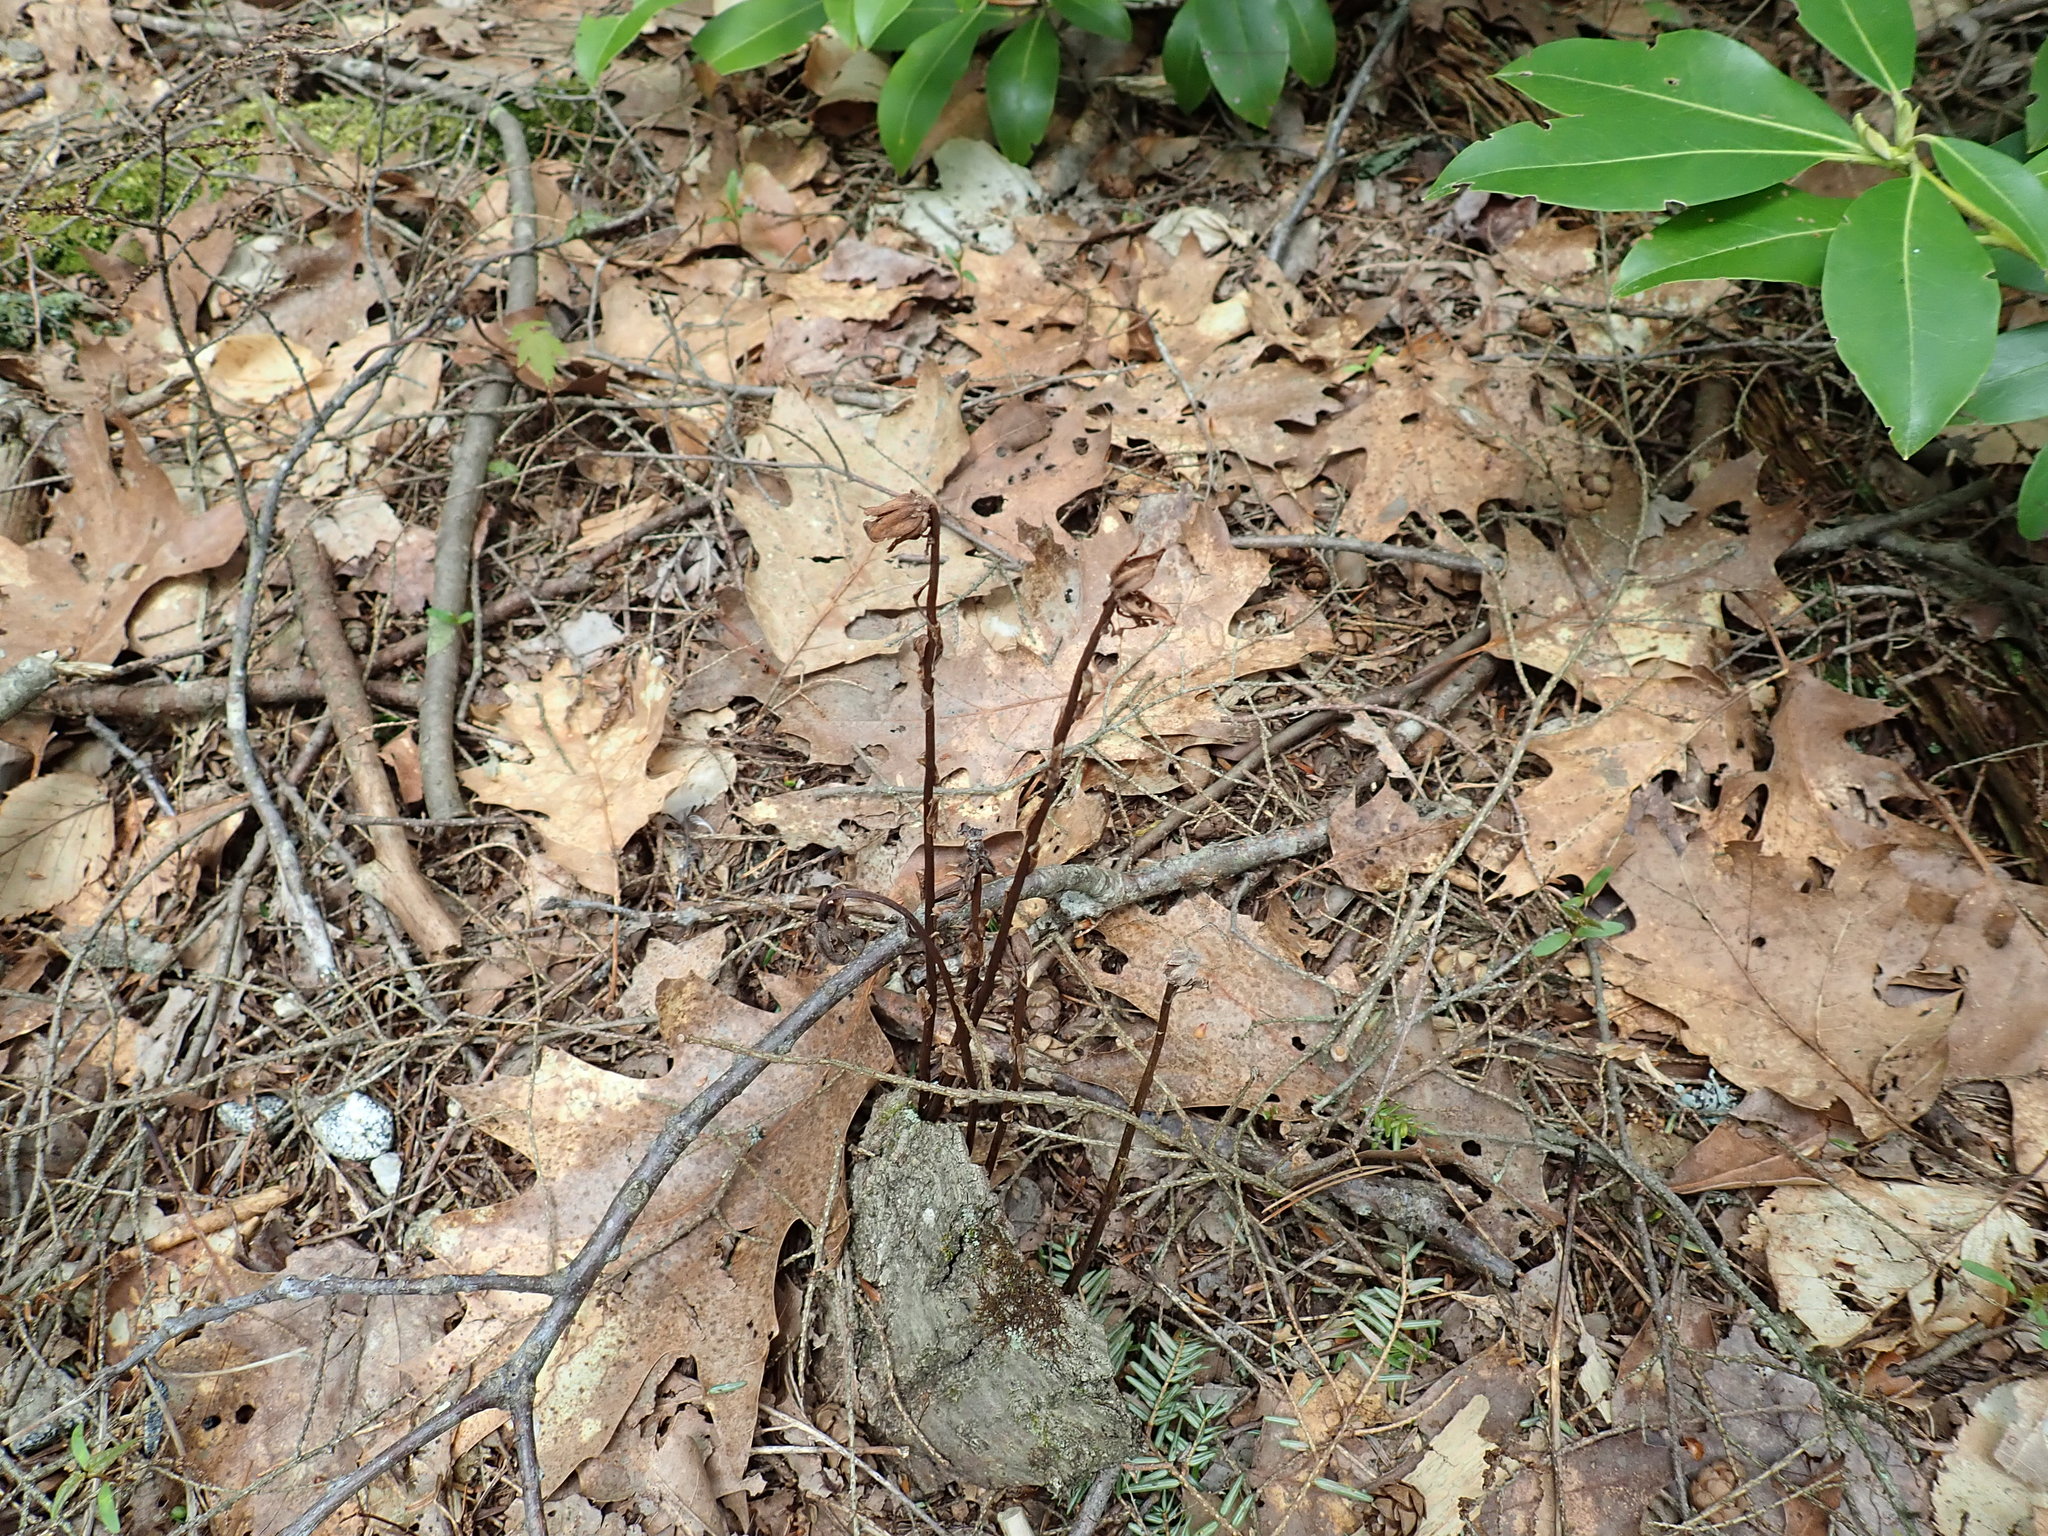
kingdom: Plantae
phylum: Tracheophyta
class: Magnoliopsida
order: Ericales
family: Ericaceae
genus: Monotropa
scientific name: Monotropa uniflora
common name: Convulsion root
